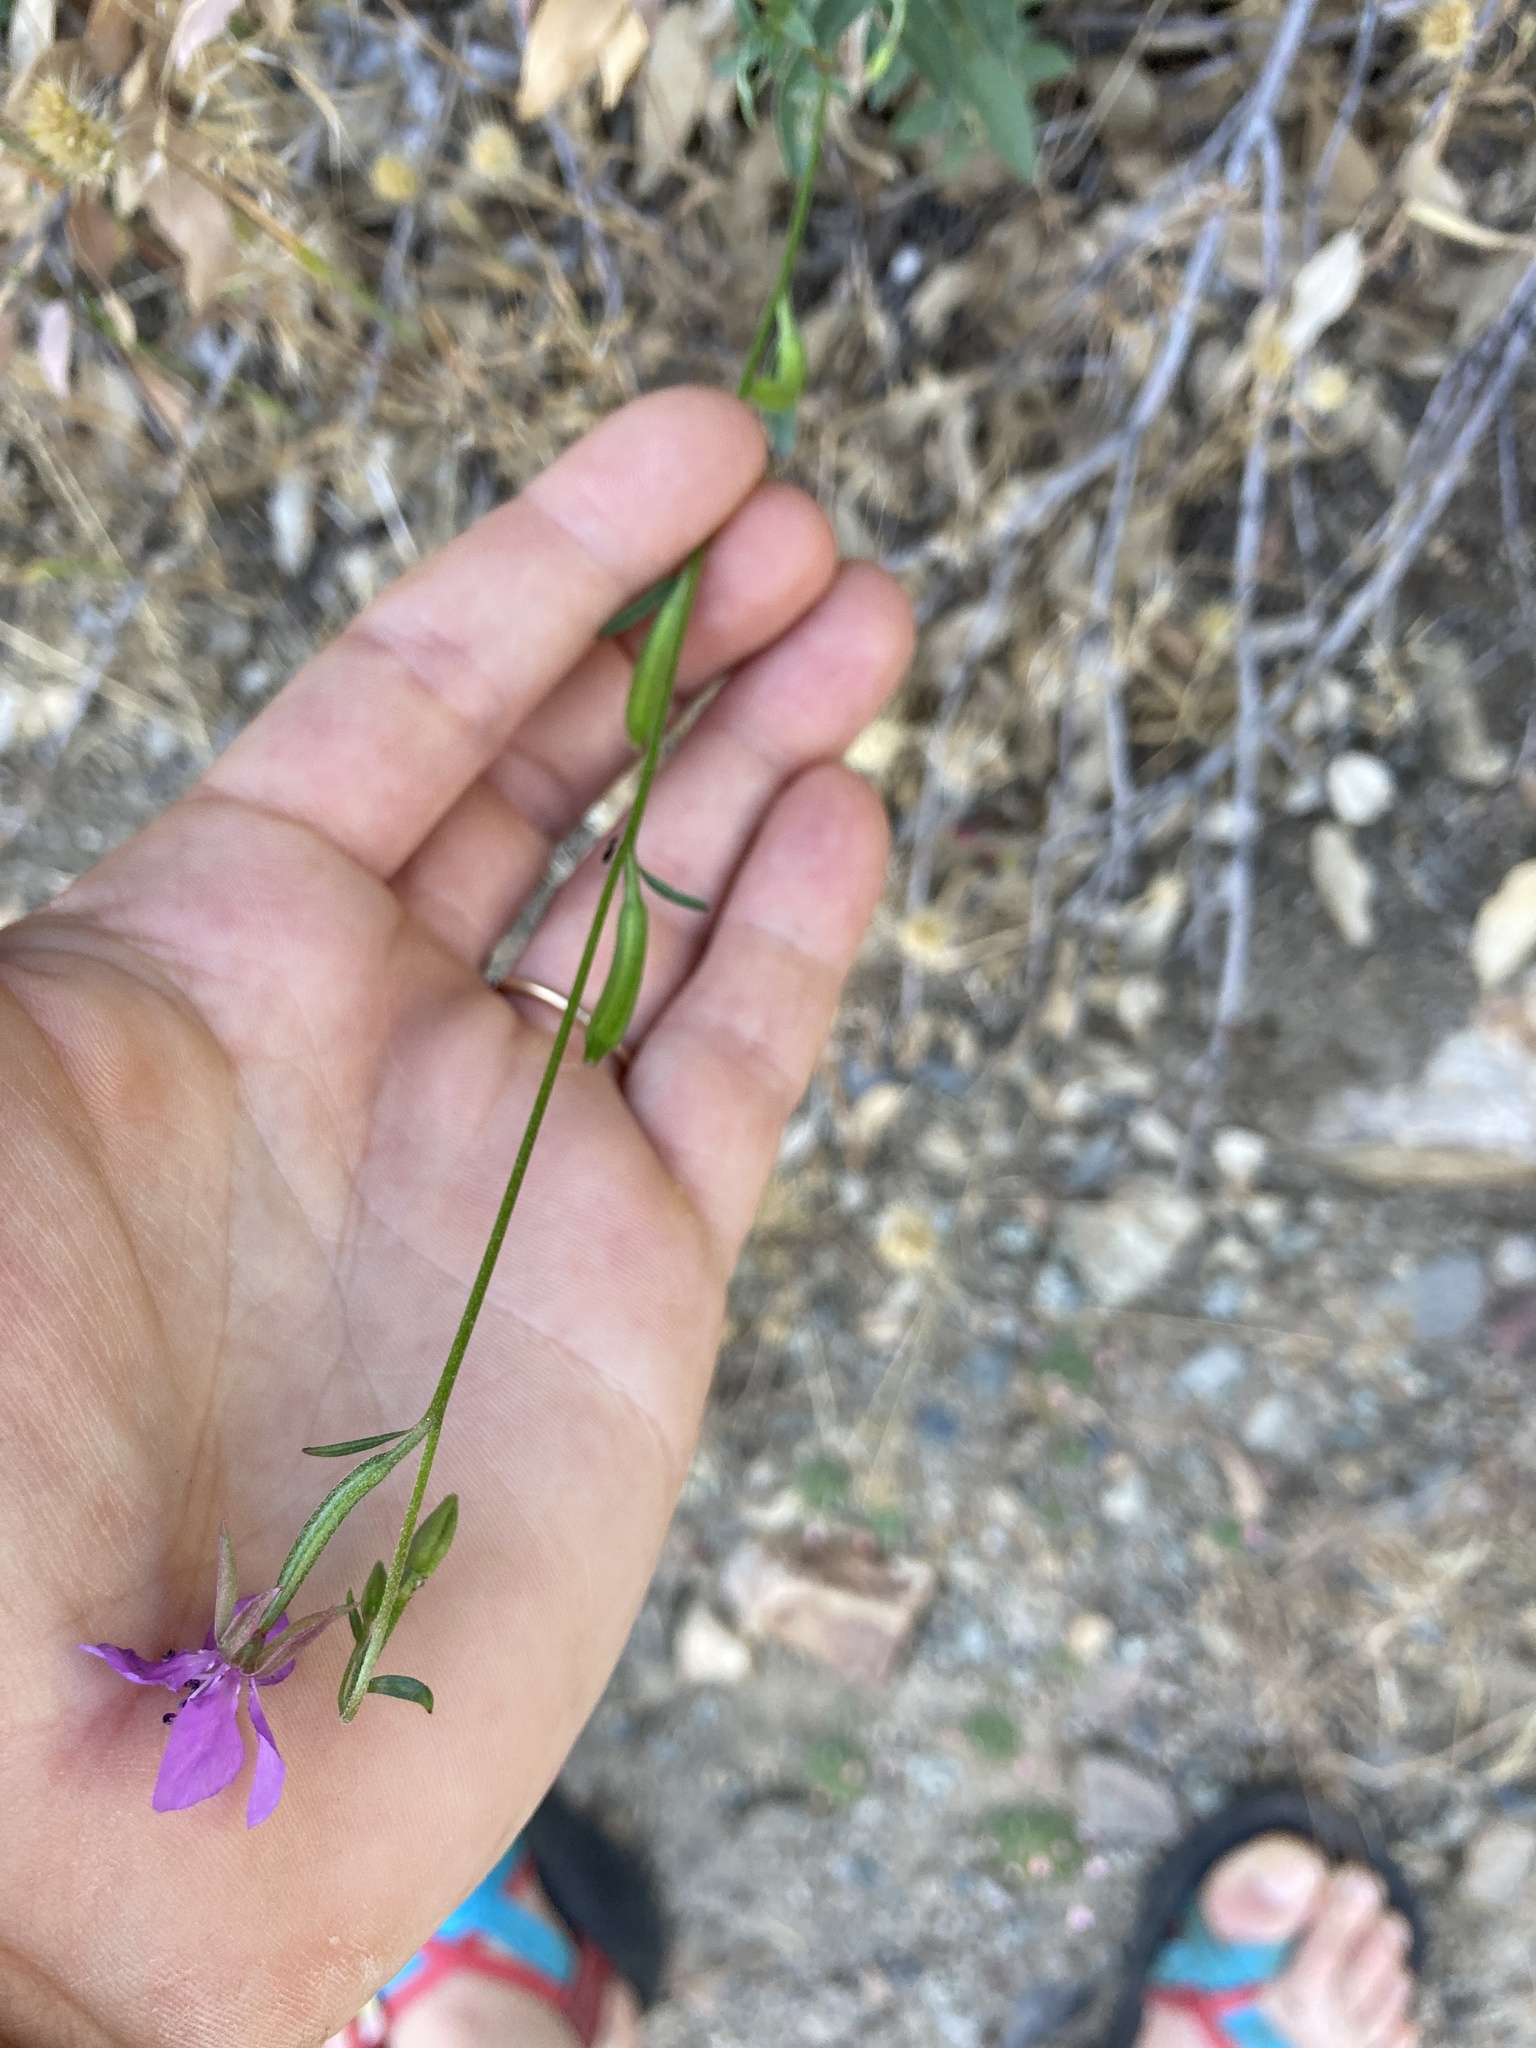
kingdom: Plantae
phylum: Tracheophyta
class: Magnoliopsida
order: Myrtales
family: Onagraceae
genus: Clarkia
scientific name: Clarkia rhomboidea
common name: Broadleaf clarkia
